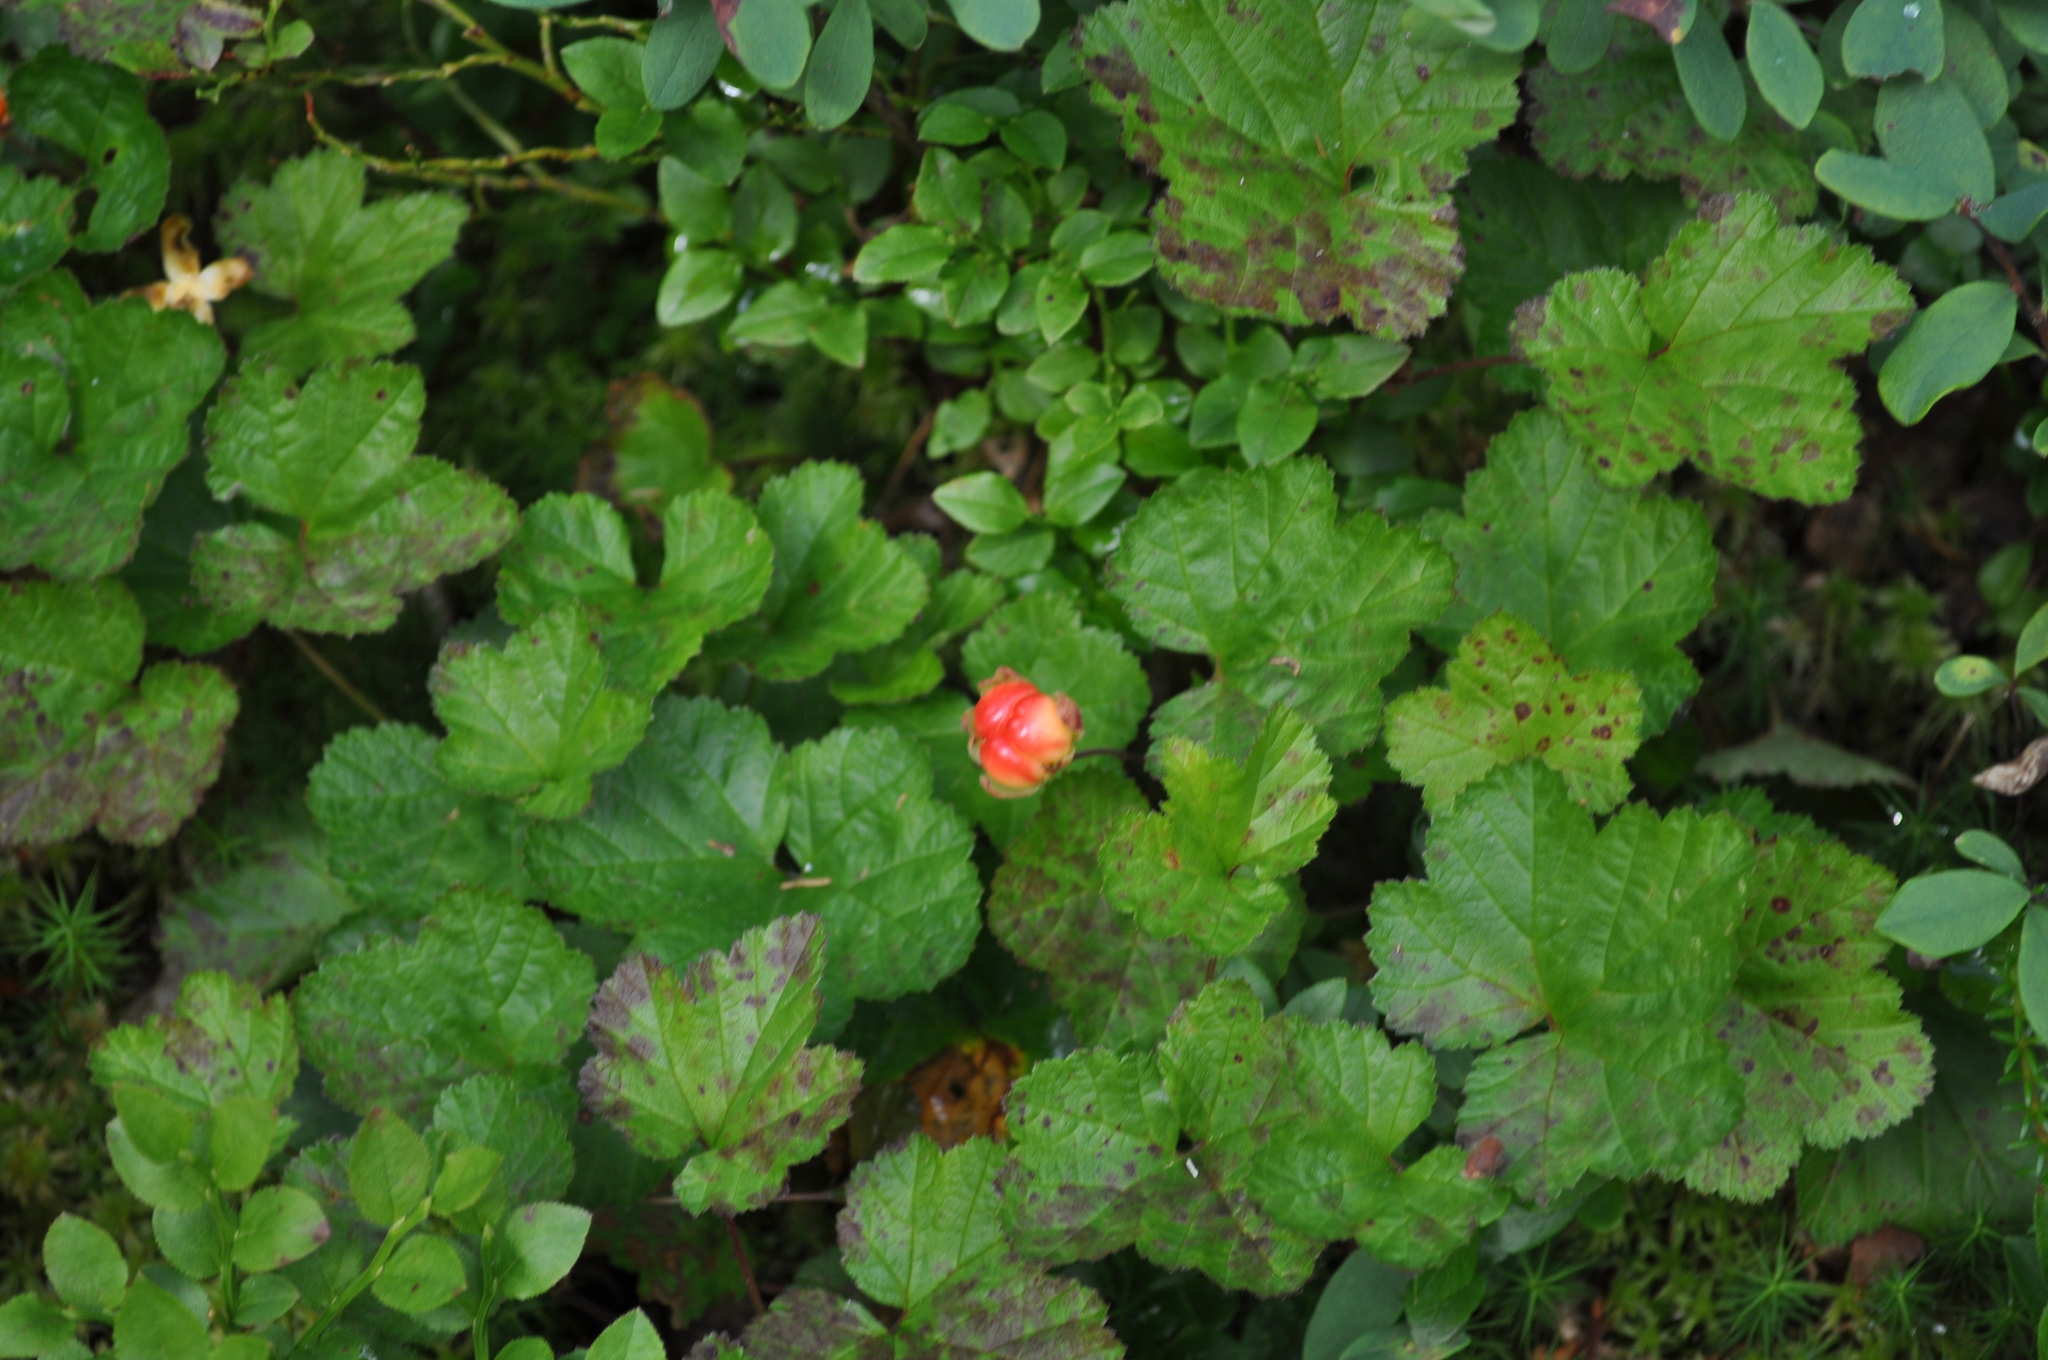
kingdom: Plantae
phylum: Tracheophyta
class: Magnoliopsida
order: Rosales
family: Rosaceae
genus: Rubus
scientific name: Rubus chamaemorus
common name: Cloudberry
